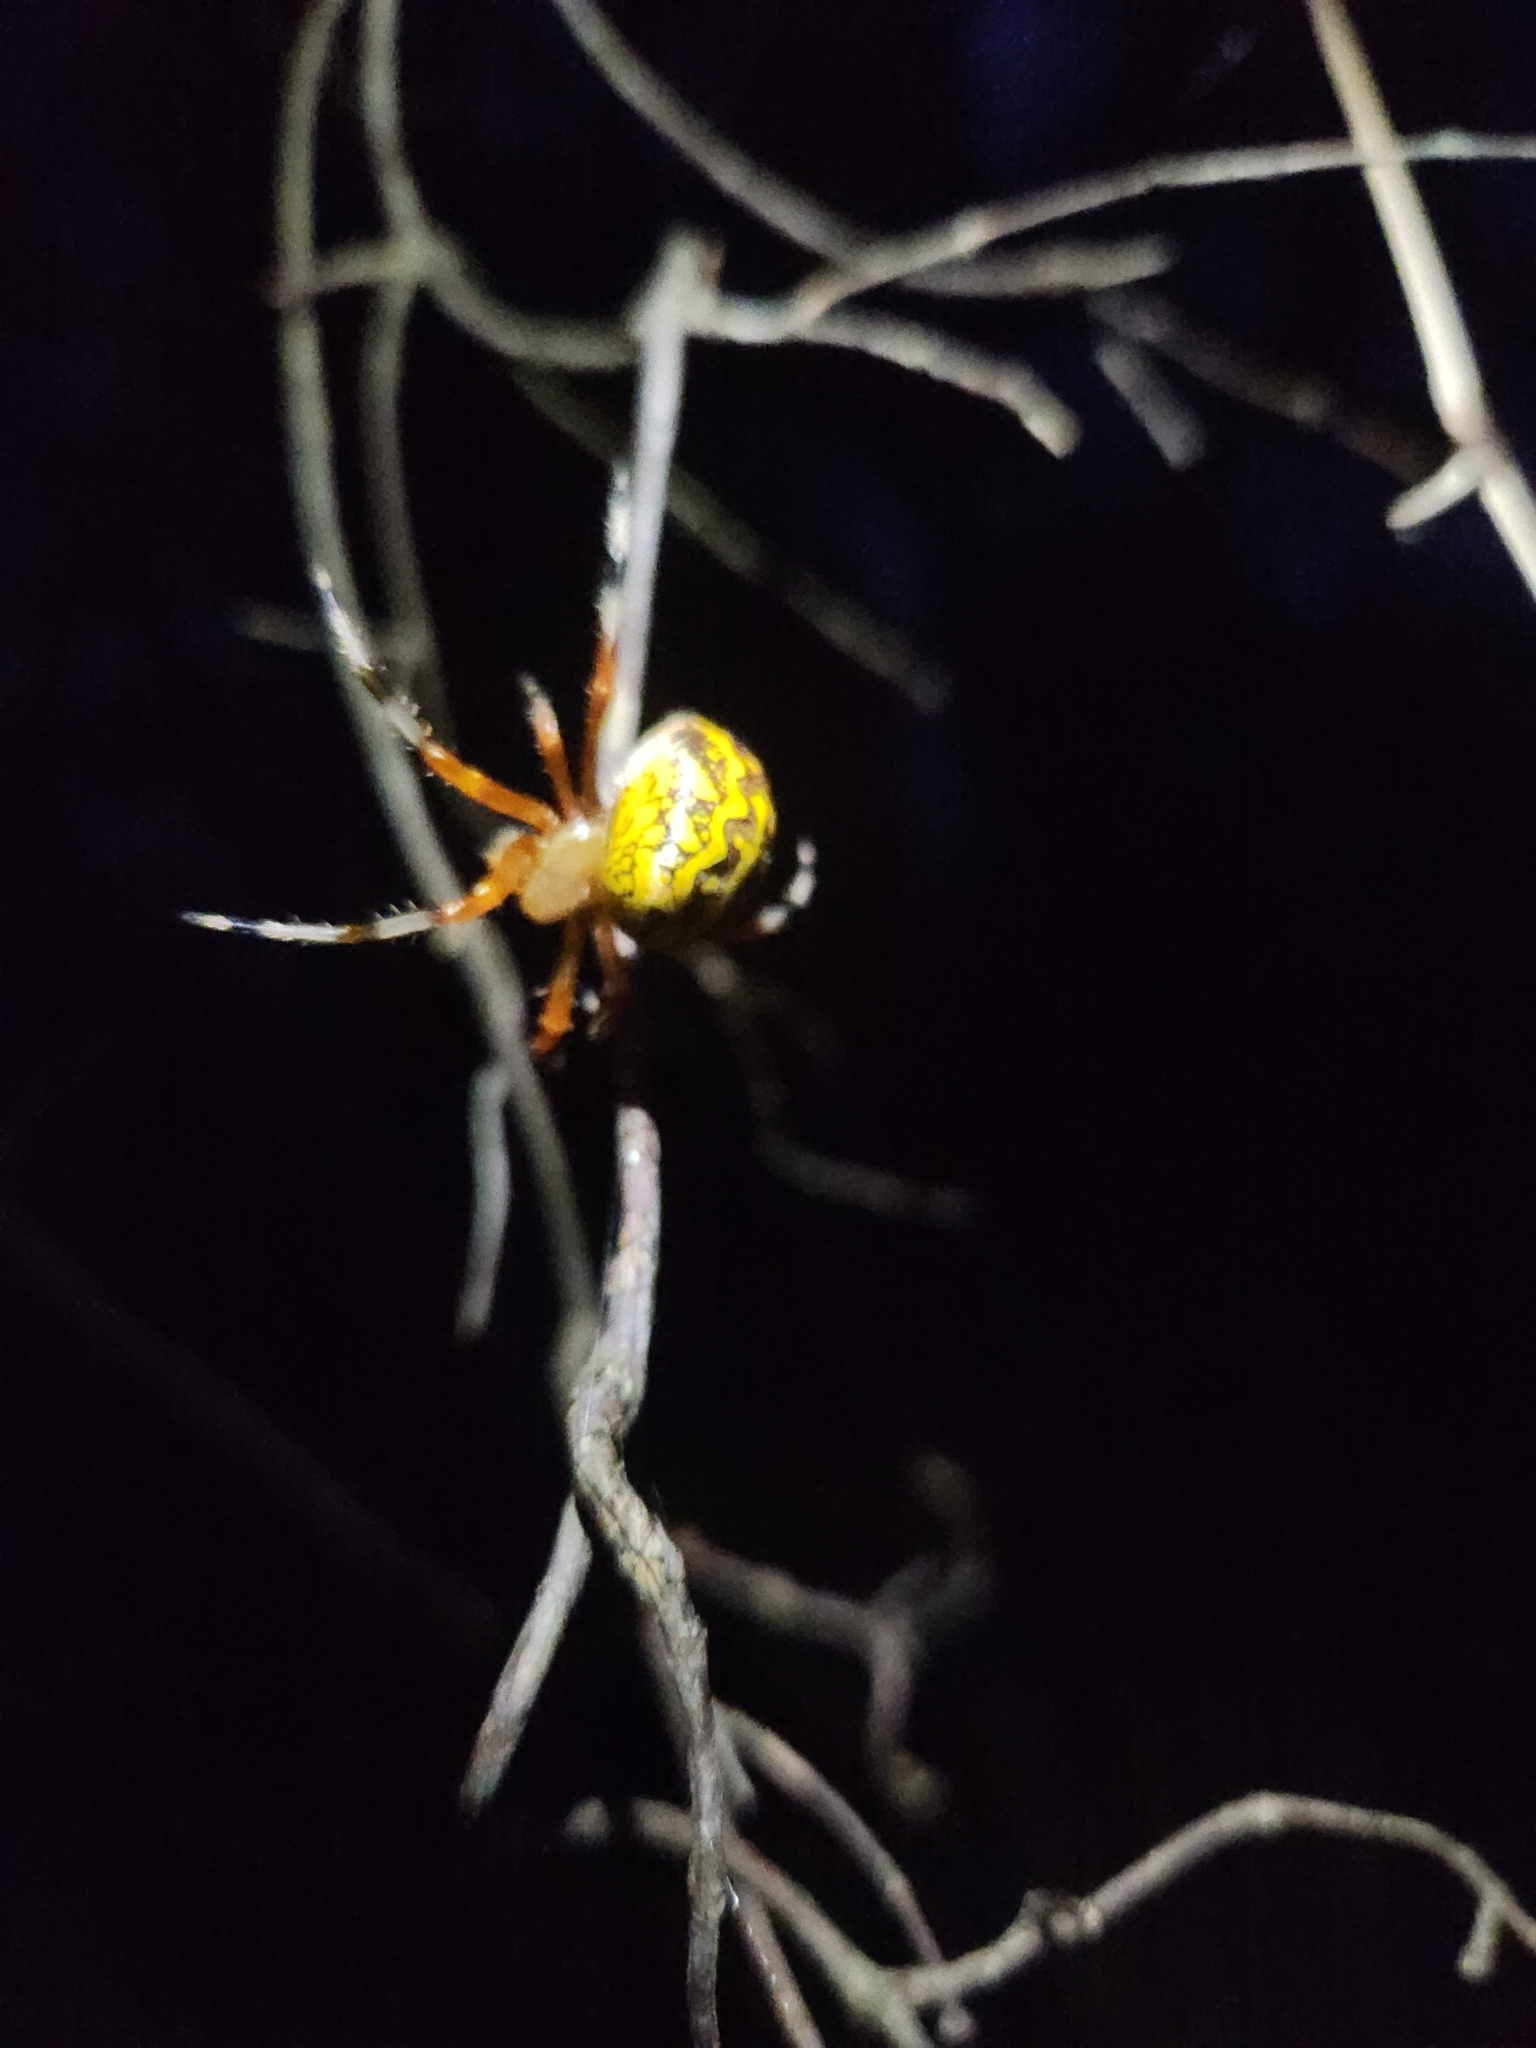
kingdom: Animalia
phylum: Arthropoda
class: Arachnida
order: Araneae
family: Araneidae
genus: Araneus
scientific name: Araneus marmoreus
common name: Marbled orbweaver
